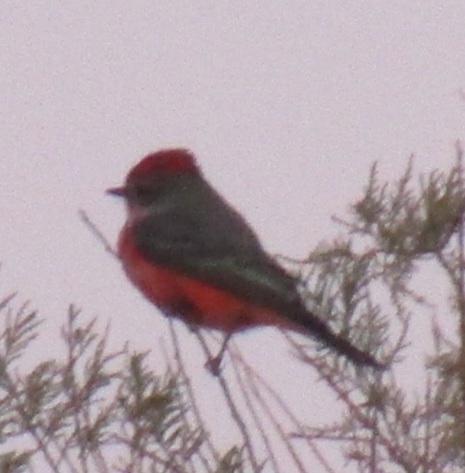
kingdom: Animalia
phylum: Chordata
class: Aves
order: Passeriformes
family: Tyrannidae
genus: Pyrocephalus
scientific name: Pyrocephalus rubinus
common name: Vermilion flycatcher
